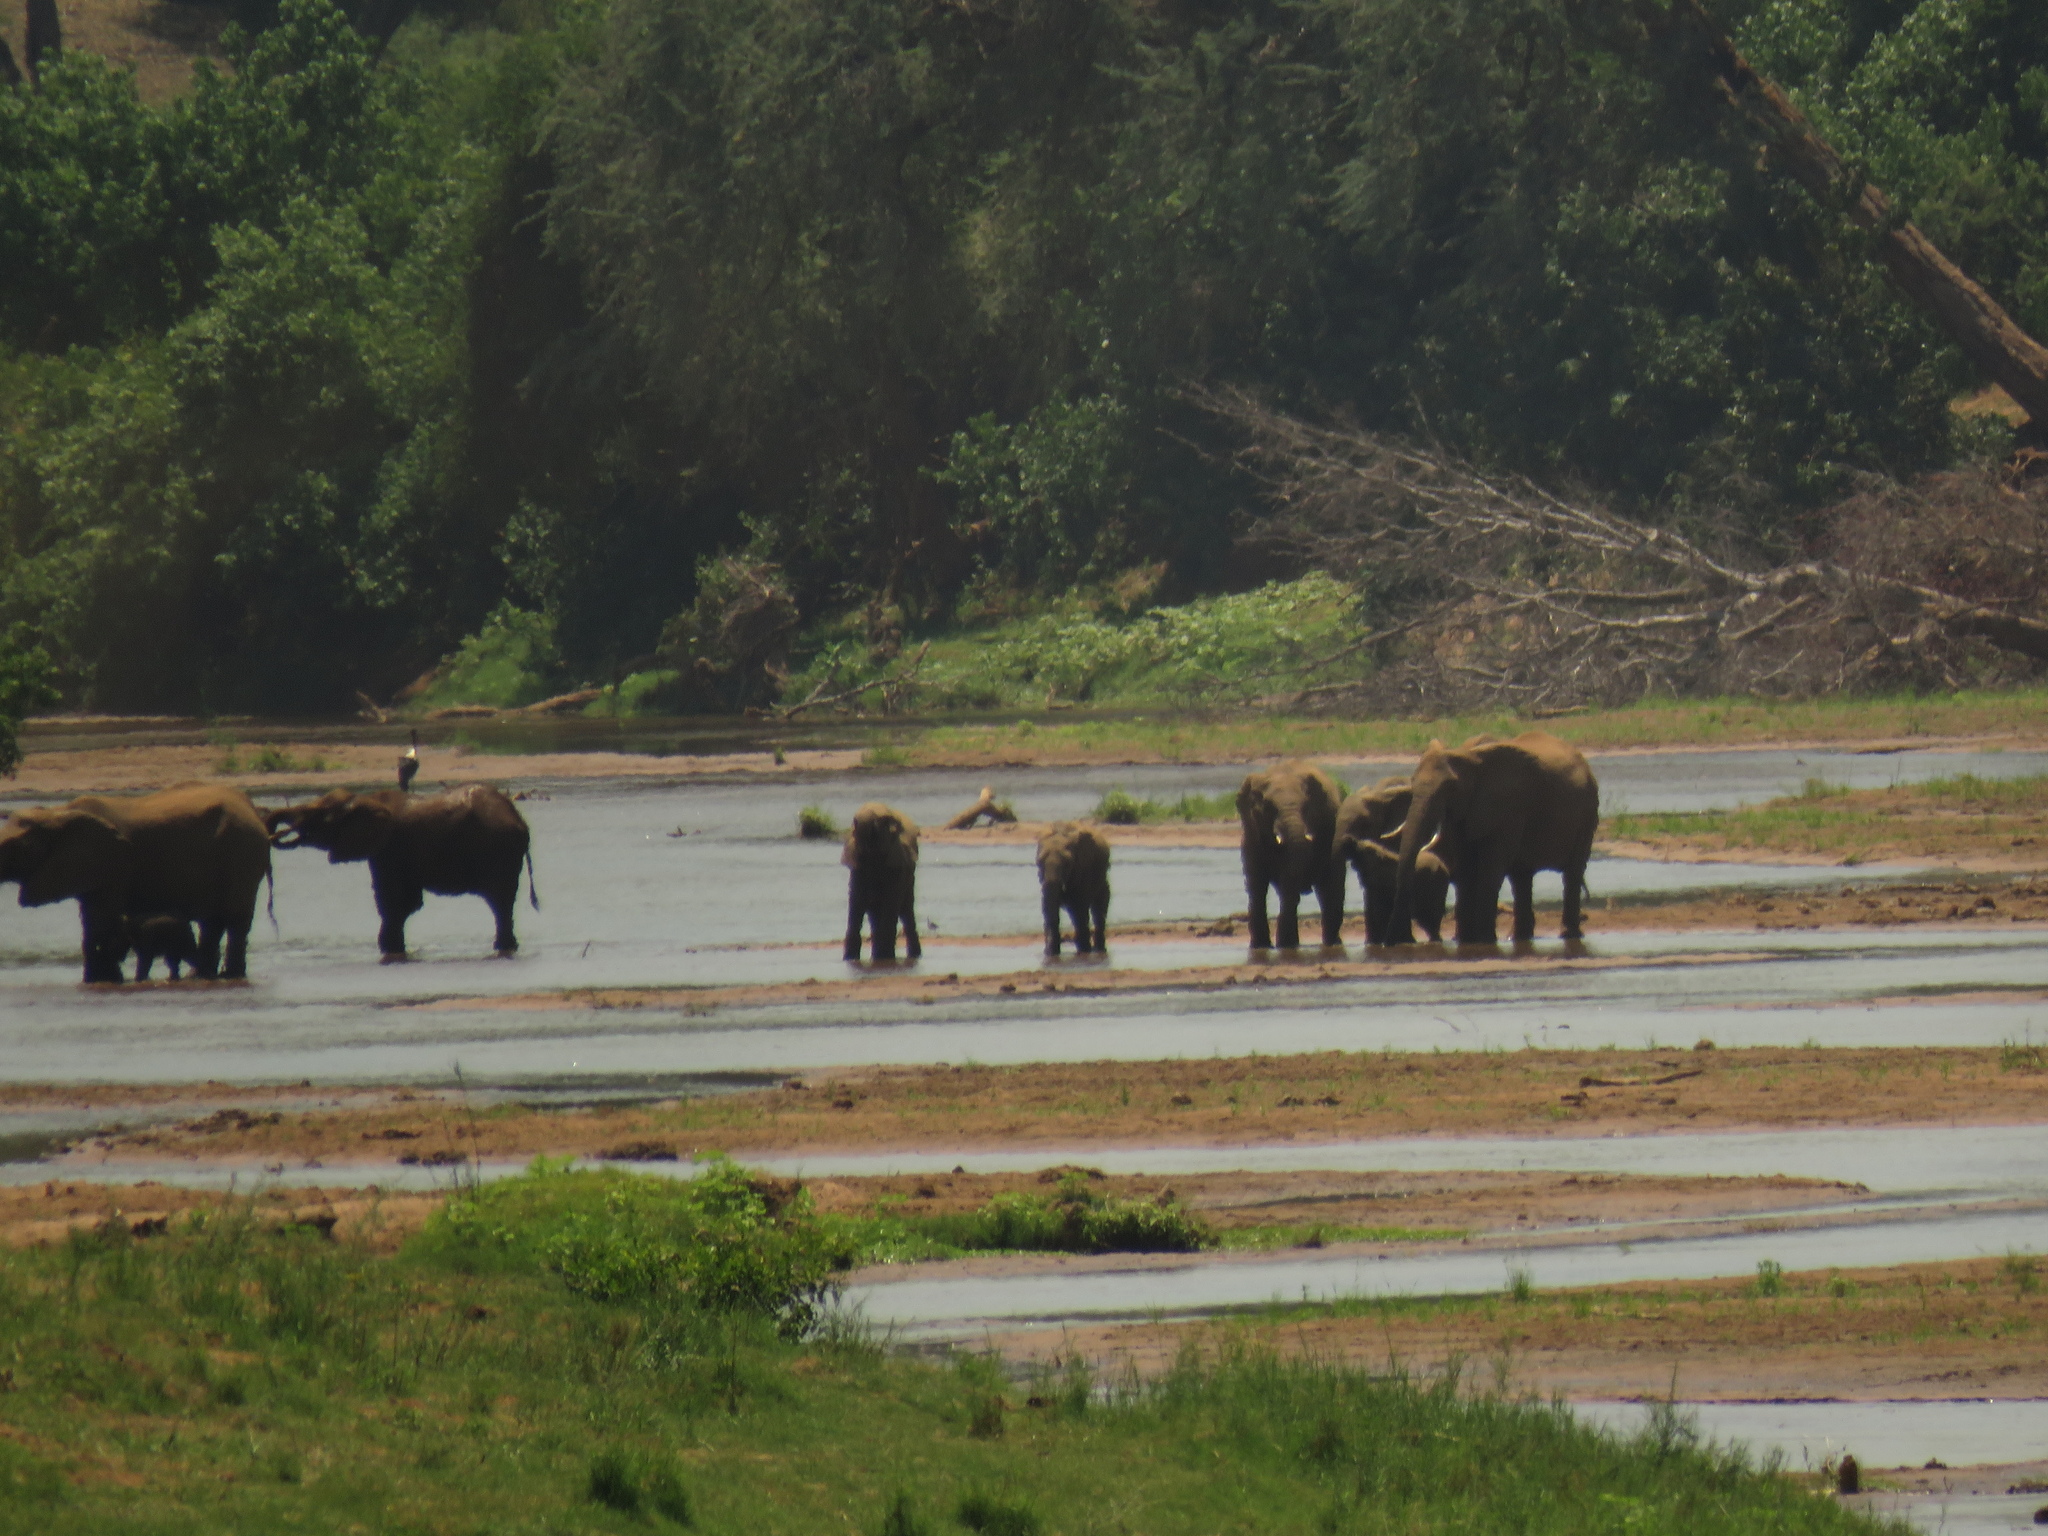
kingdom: Animalia
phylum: Chordata
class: Mammalia
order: Proboscidea
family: Elephantidae
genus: Loxodonta
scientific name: Loxodonta africana
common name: African elephant
